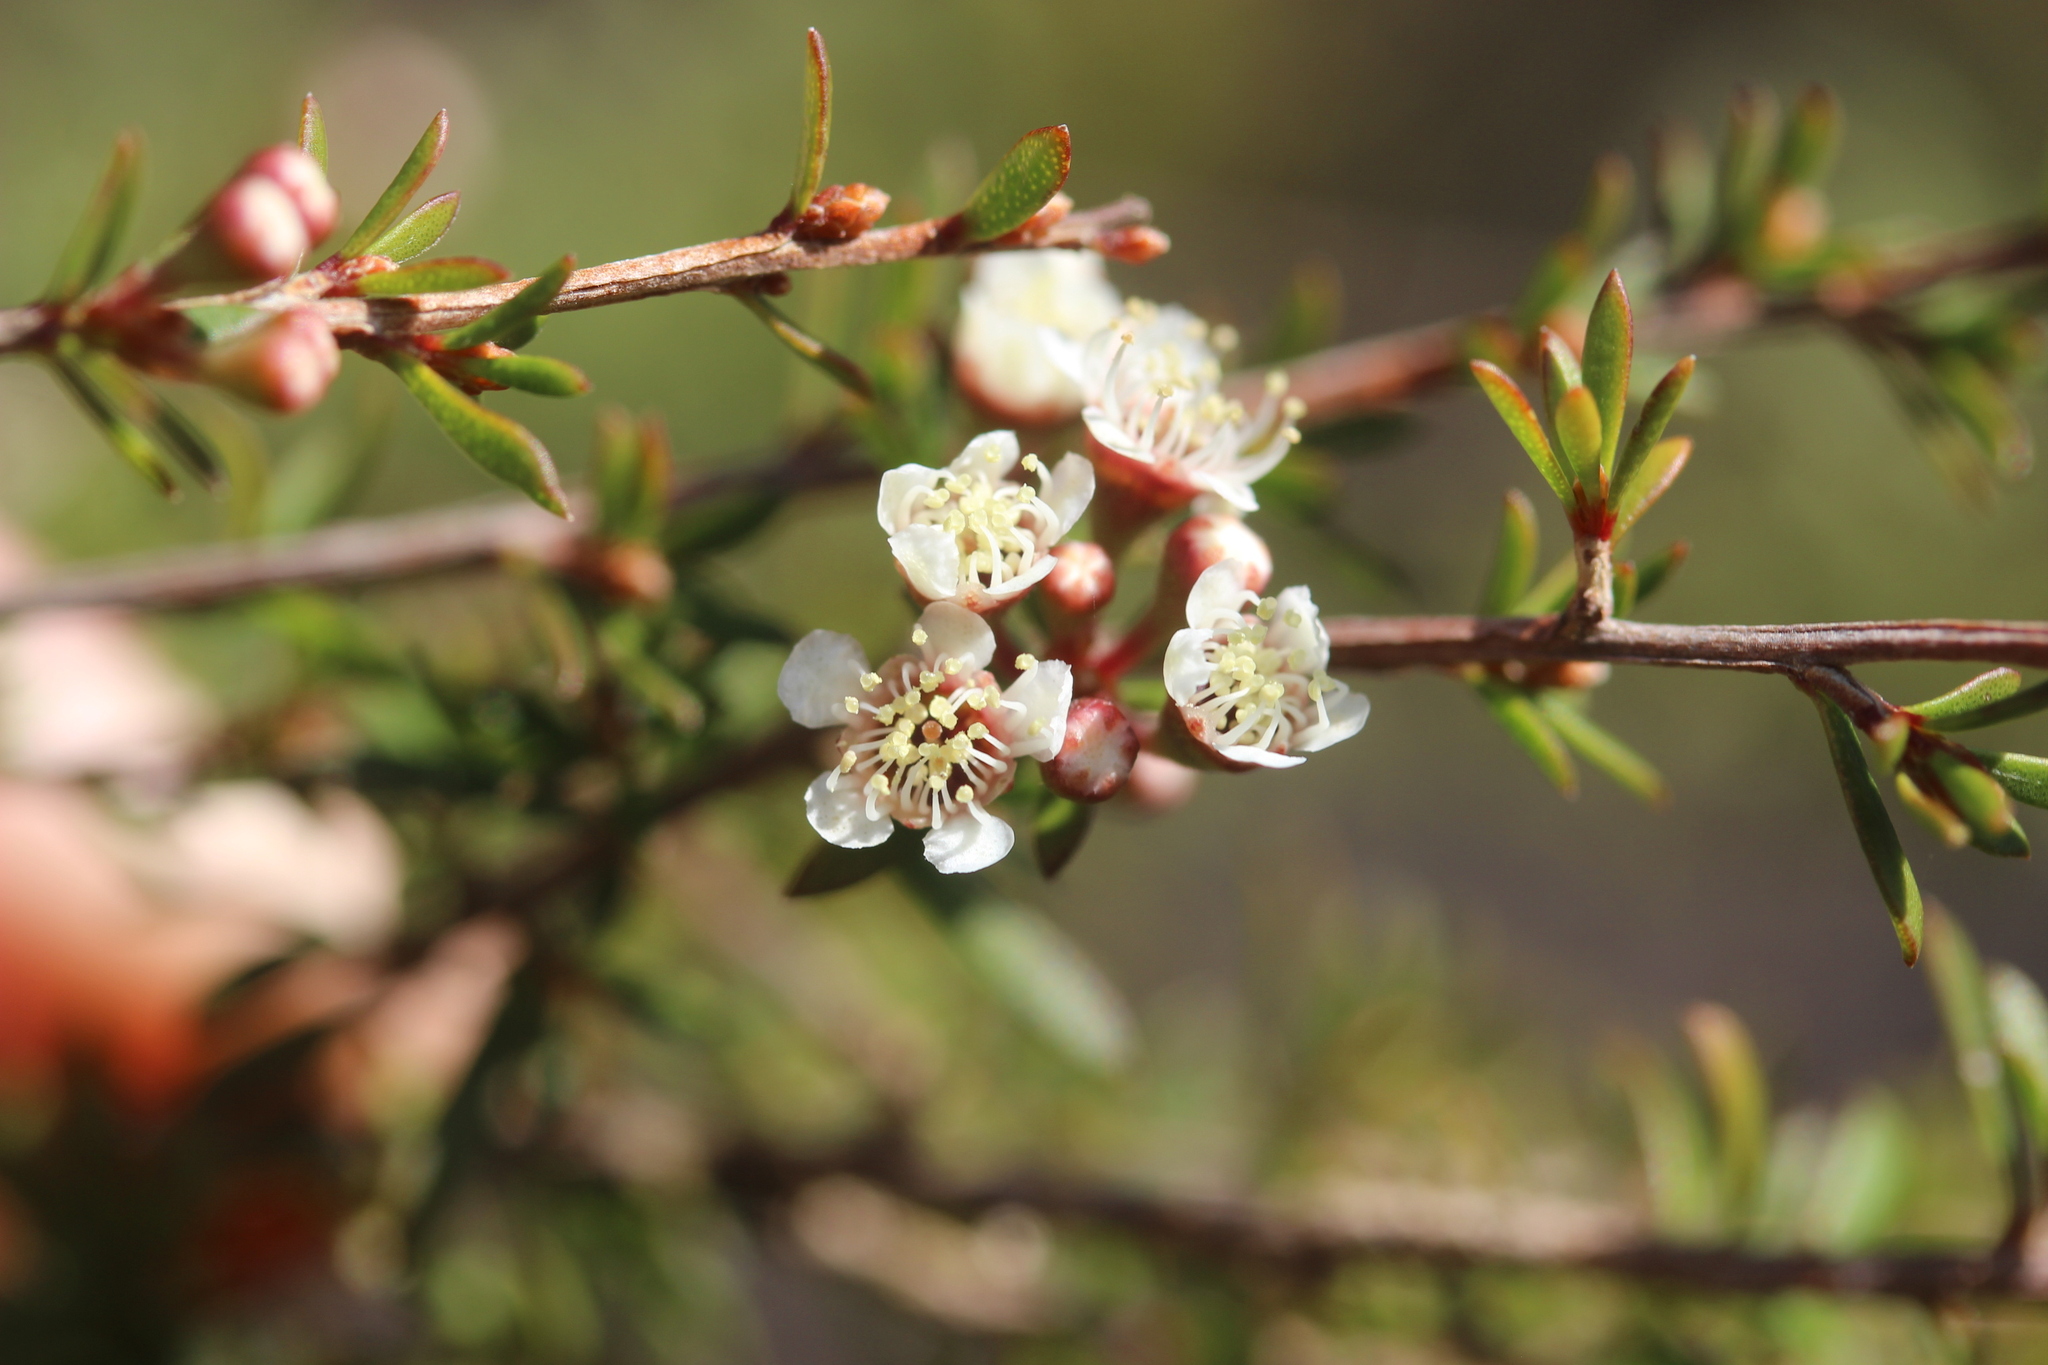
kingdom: Plantae
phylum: Tracheophyta
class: Magnoliopsida
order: Myrtales
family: Myrtaceae
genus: Kunzea
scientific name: Kunzea tenuicaulis
